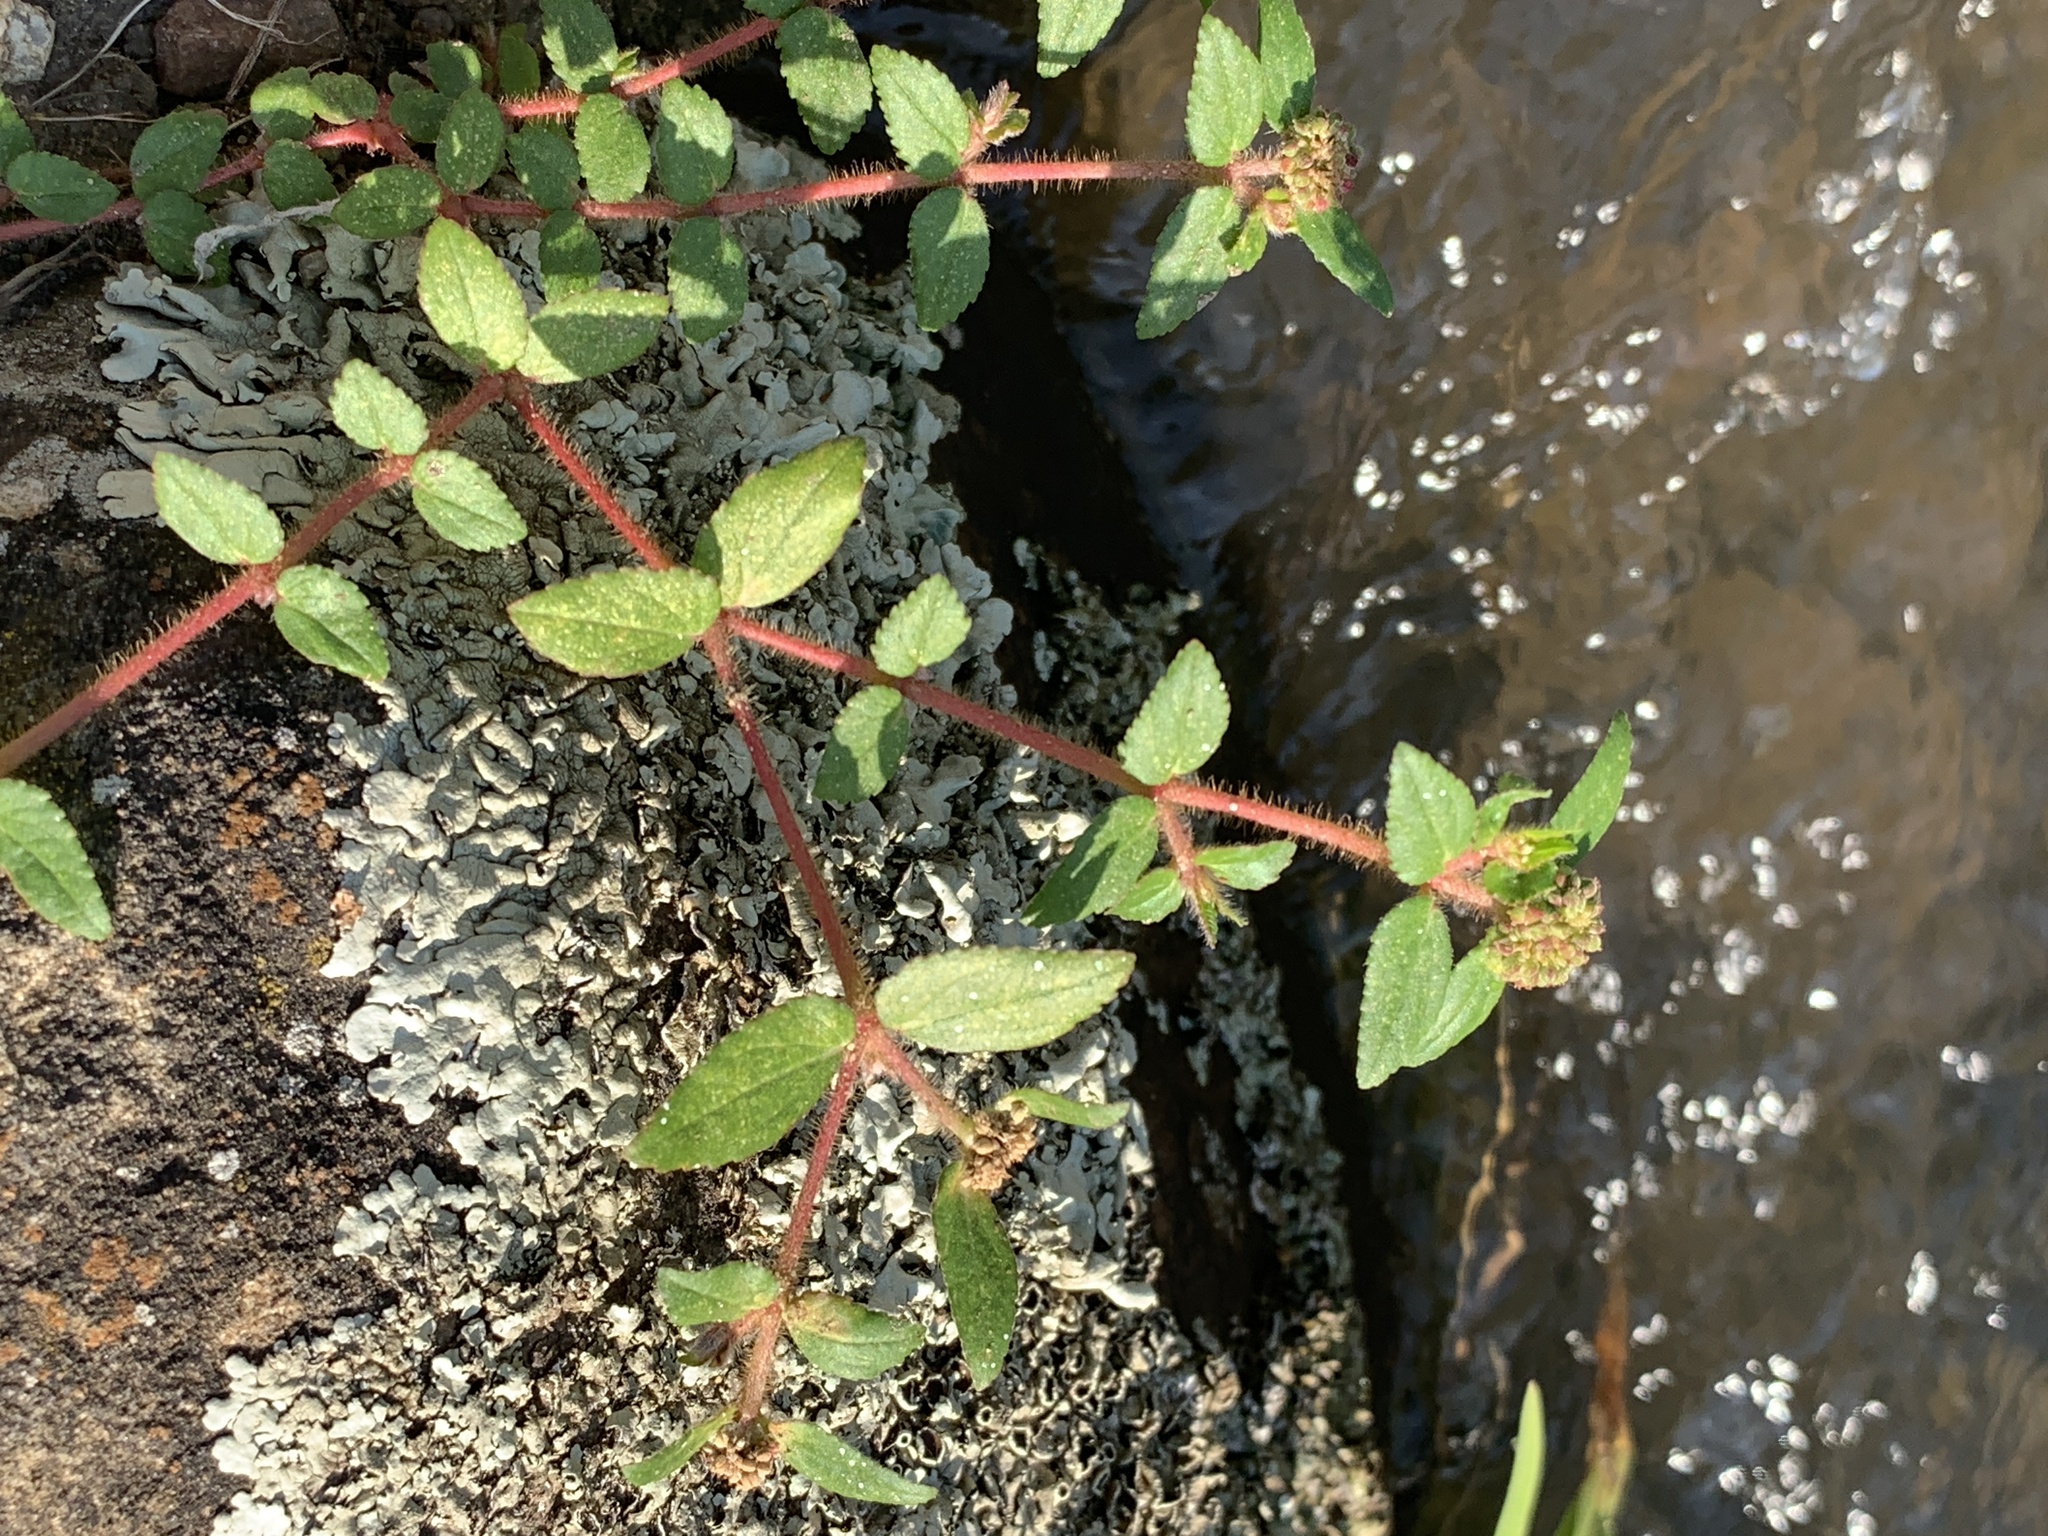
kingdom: Plantae
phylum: Tracheophyta
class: Magnoliopsida
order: Malpighiales
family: Euphorbiaceae
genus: Euphorbia
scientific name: Euphorbia ophthalmica
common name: Florida hammock sandmat
